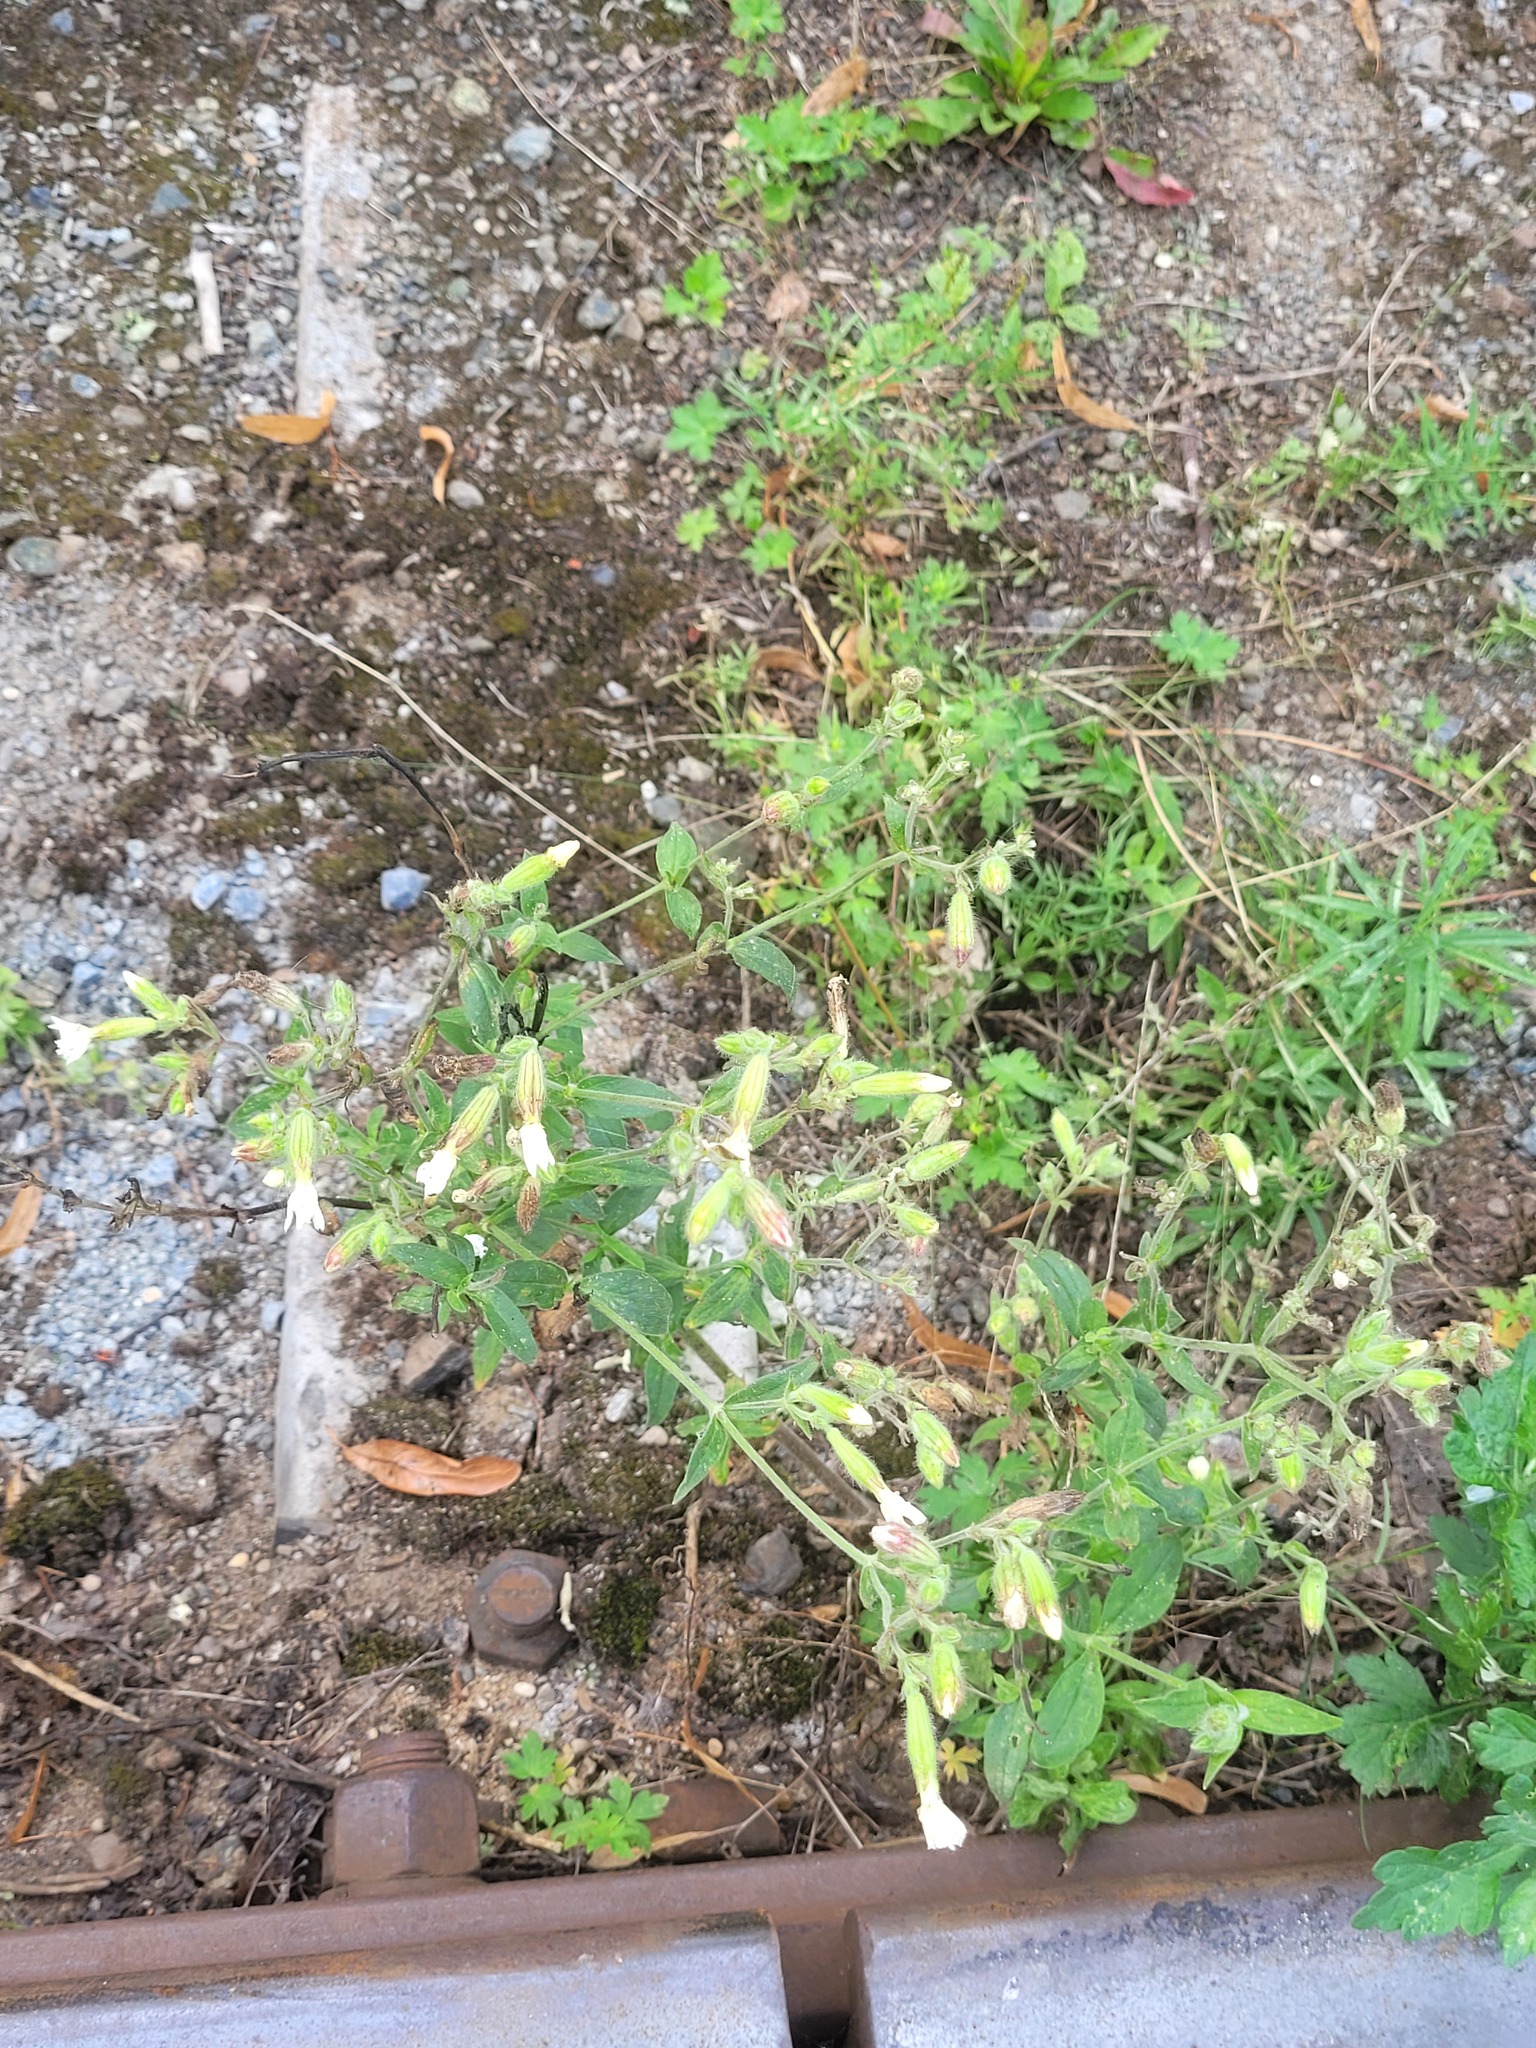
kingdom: Plantae
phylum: Tracheophyta
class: Magnoliopsida
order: Caryophyllales
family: Caryophyllaceae
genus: Silene
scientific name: Silene latifolia
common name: White campion
